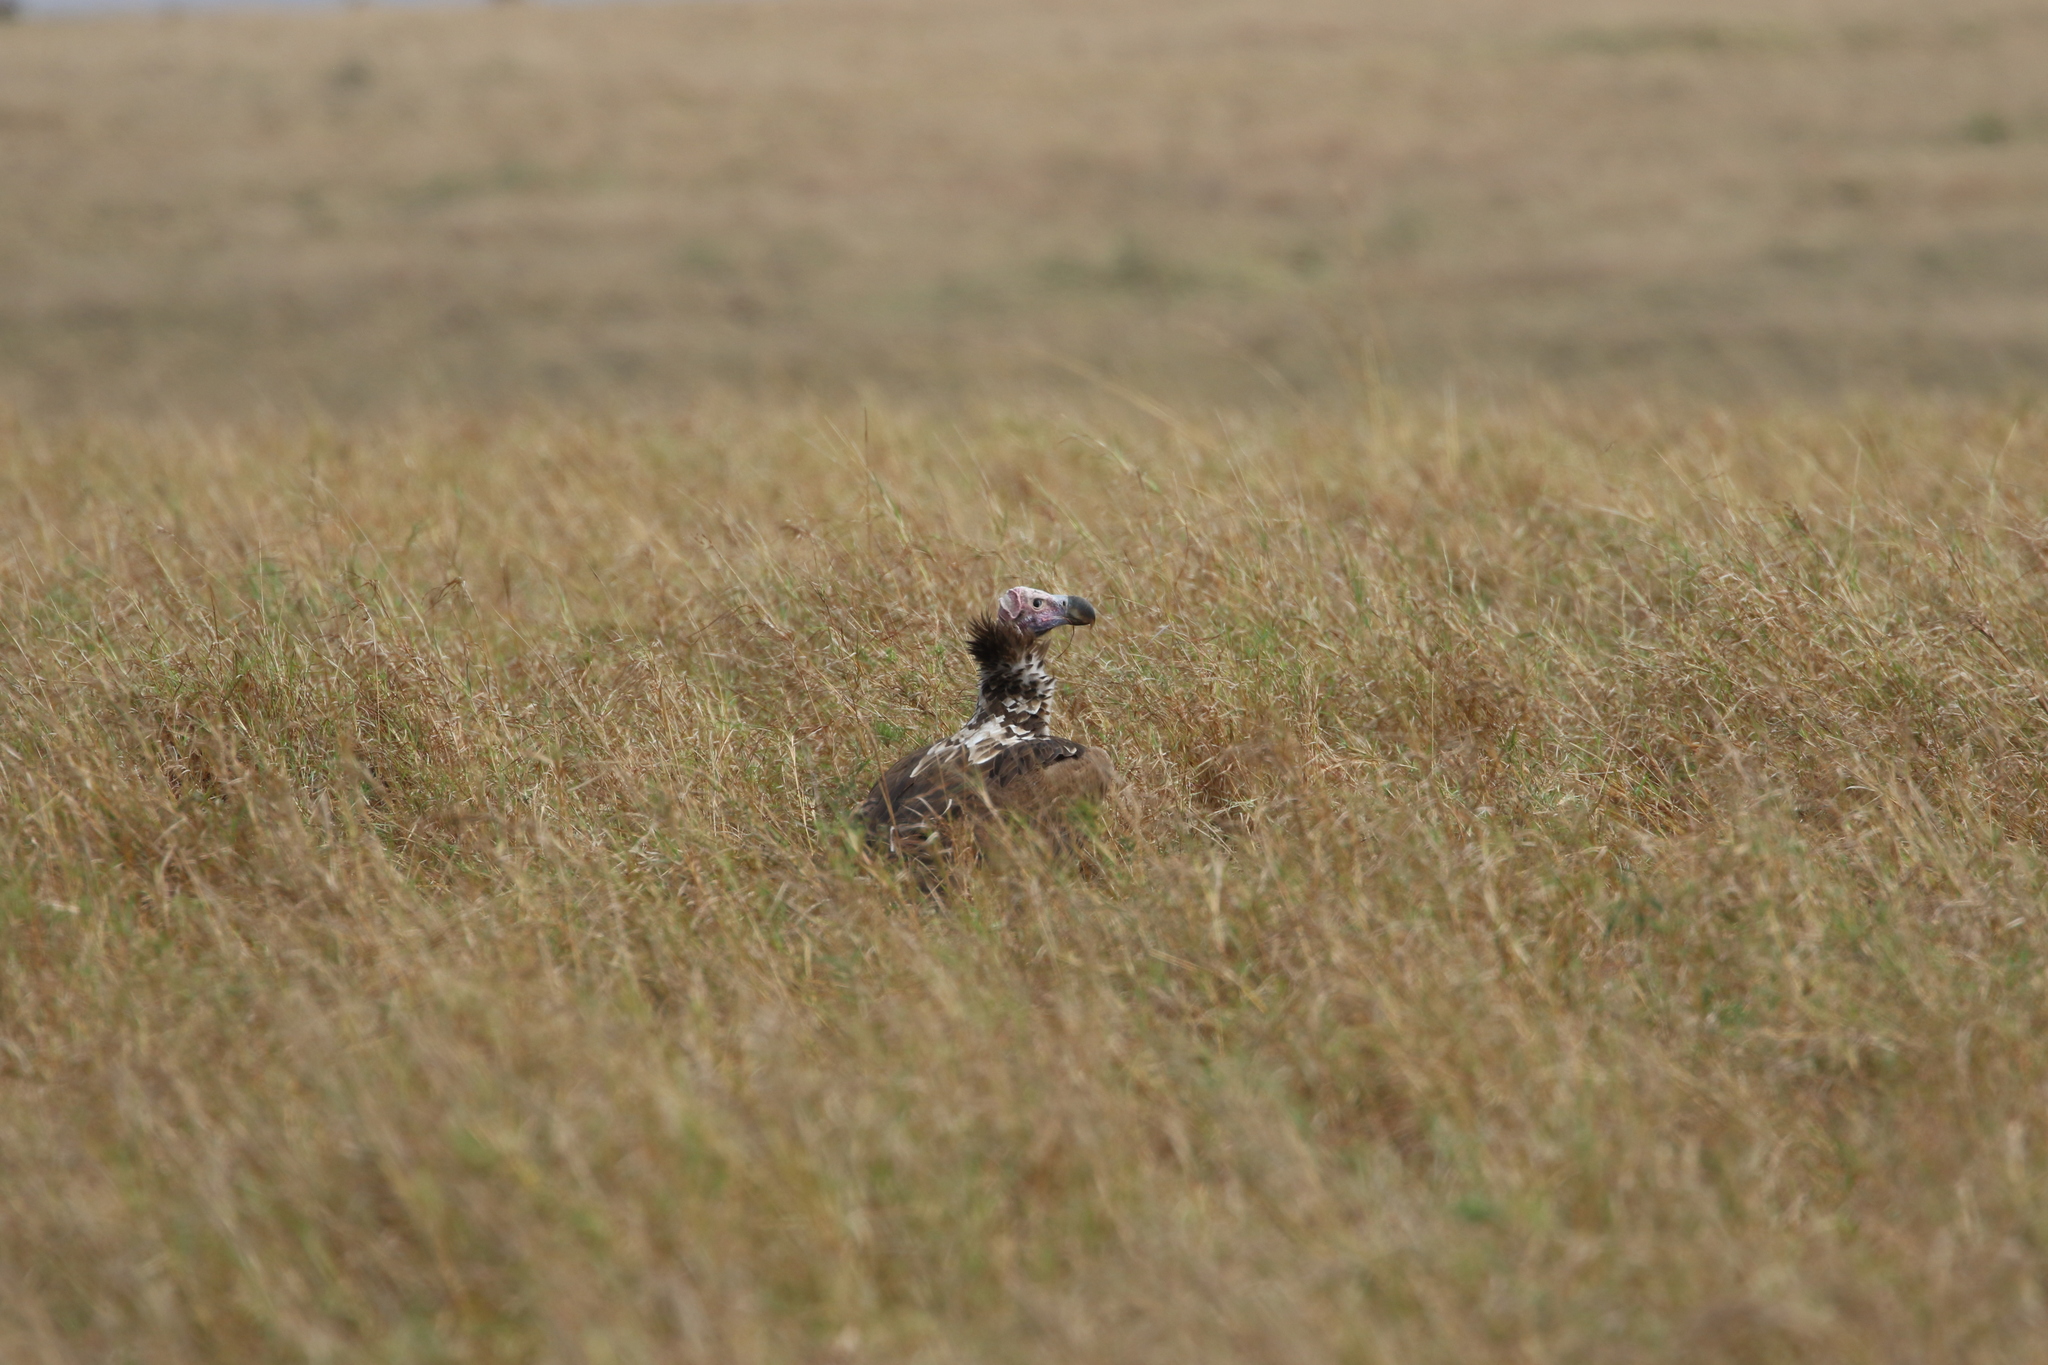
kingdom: Animalia
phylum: Chordata
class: Aves
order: Accipitriformes
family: Accipitridae
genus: Torgos
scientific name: Torgos tracheliotos
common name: Lappet-faced vulture
